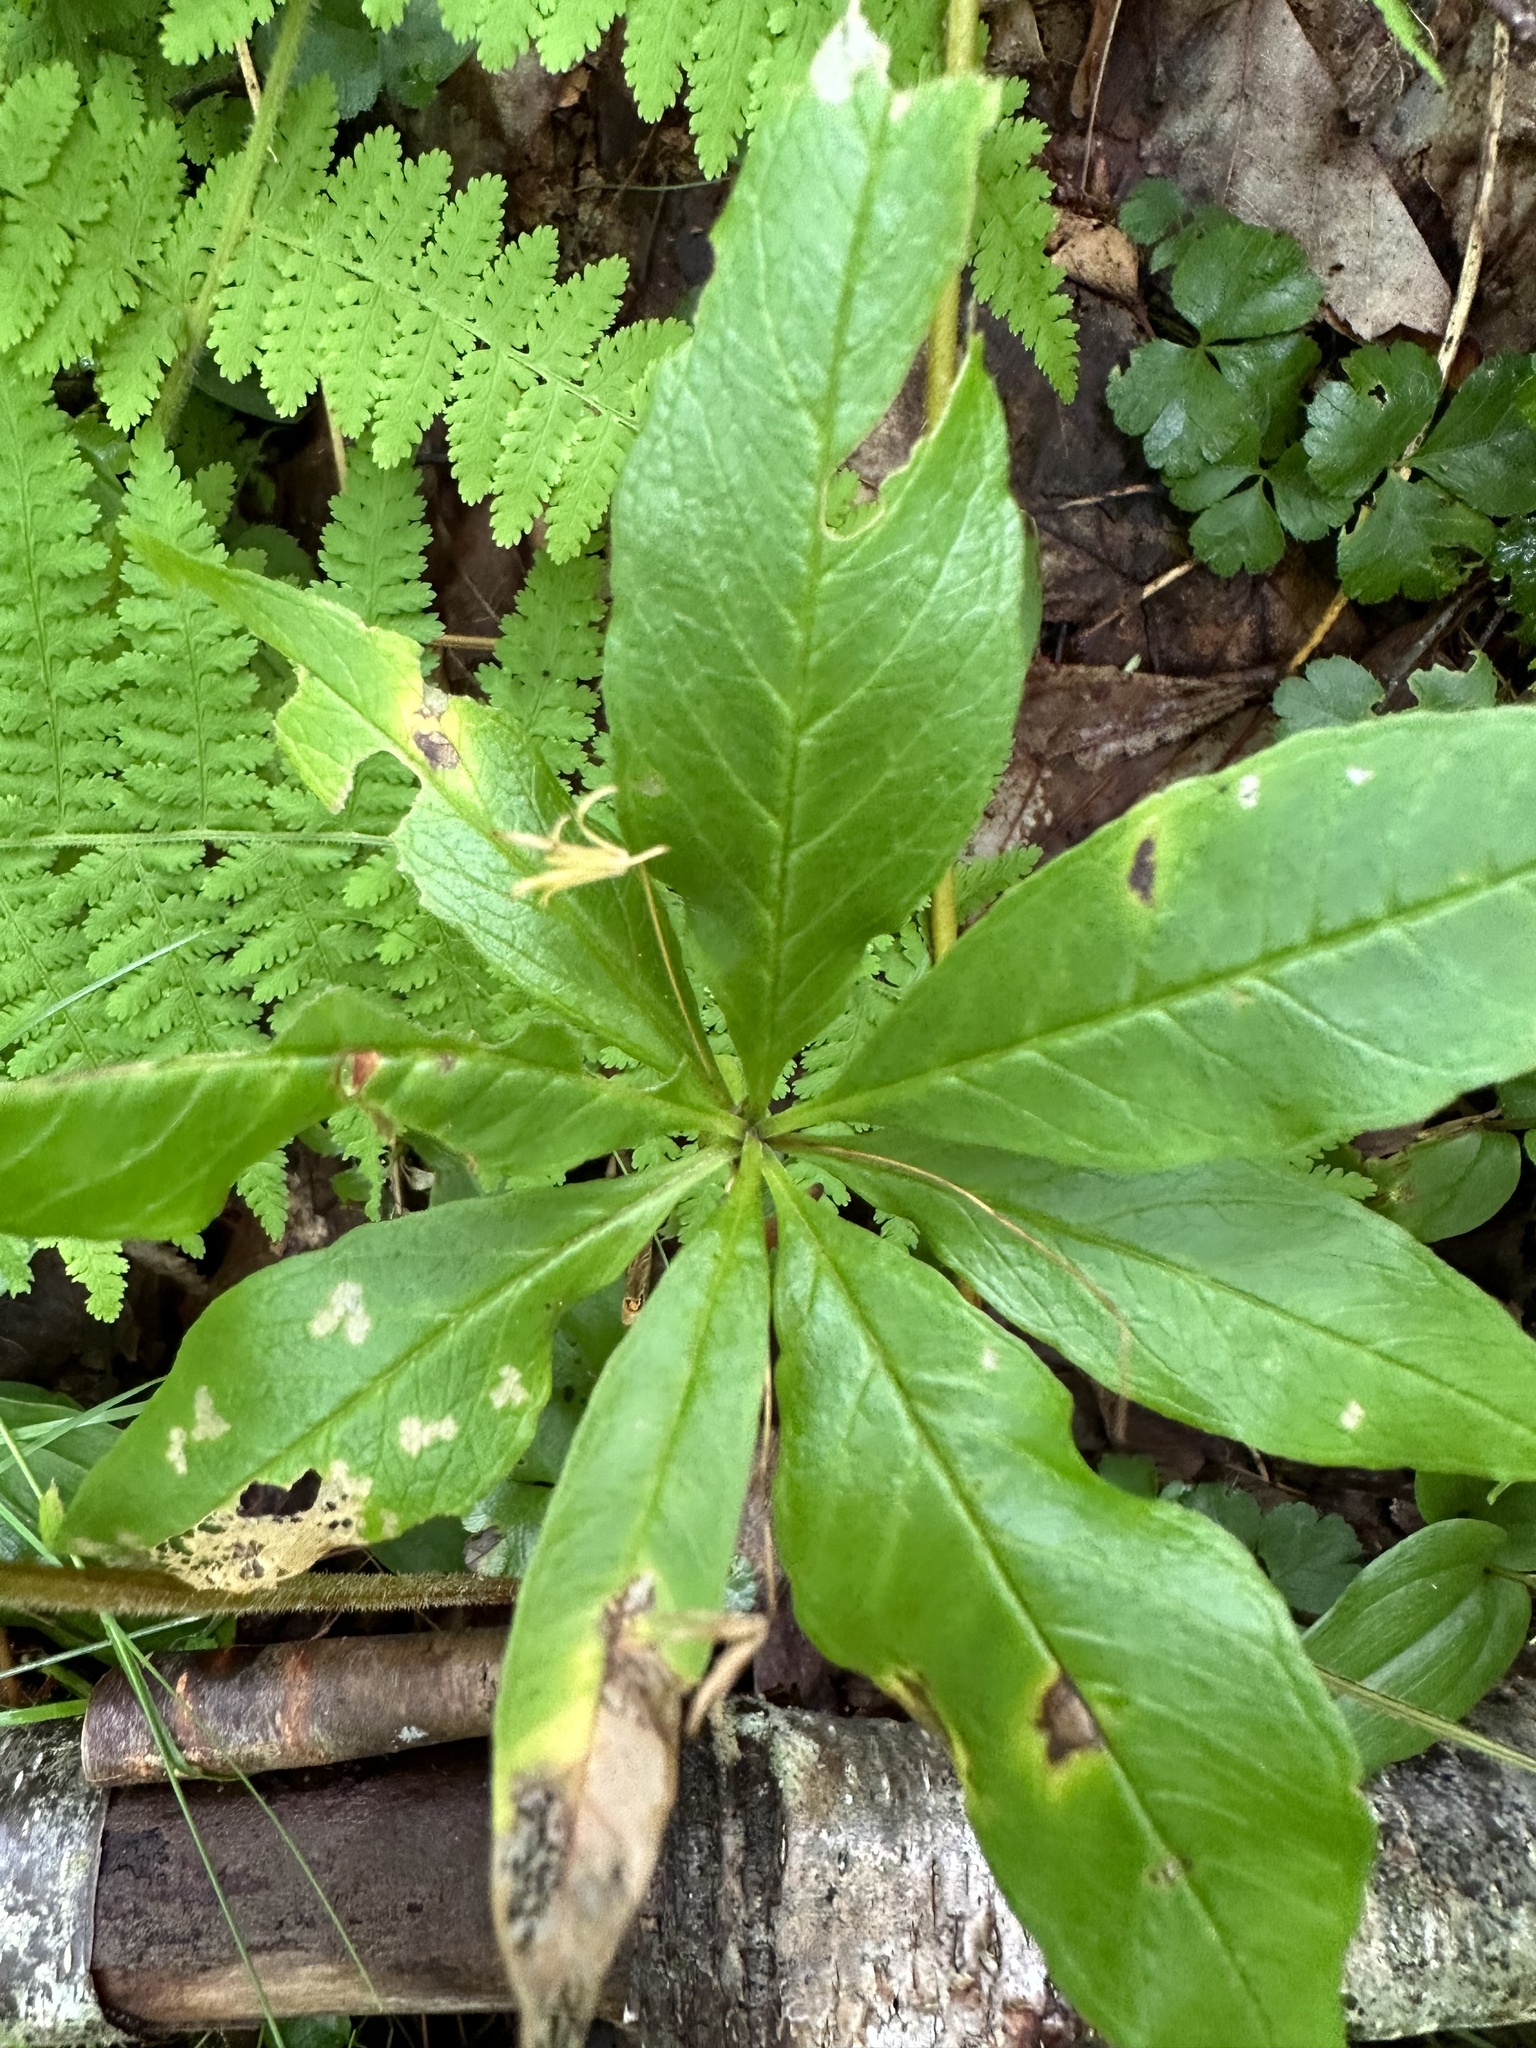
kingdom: Plantae
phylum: Tracheophyta
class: Magnoliopsida
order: Ericales
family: Primulaceae
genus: Lysimachia
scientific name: Lysimachia borealis
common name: American starflower
